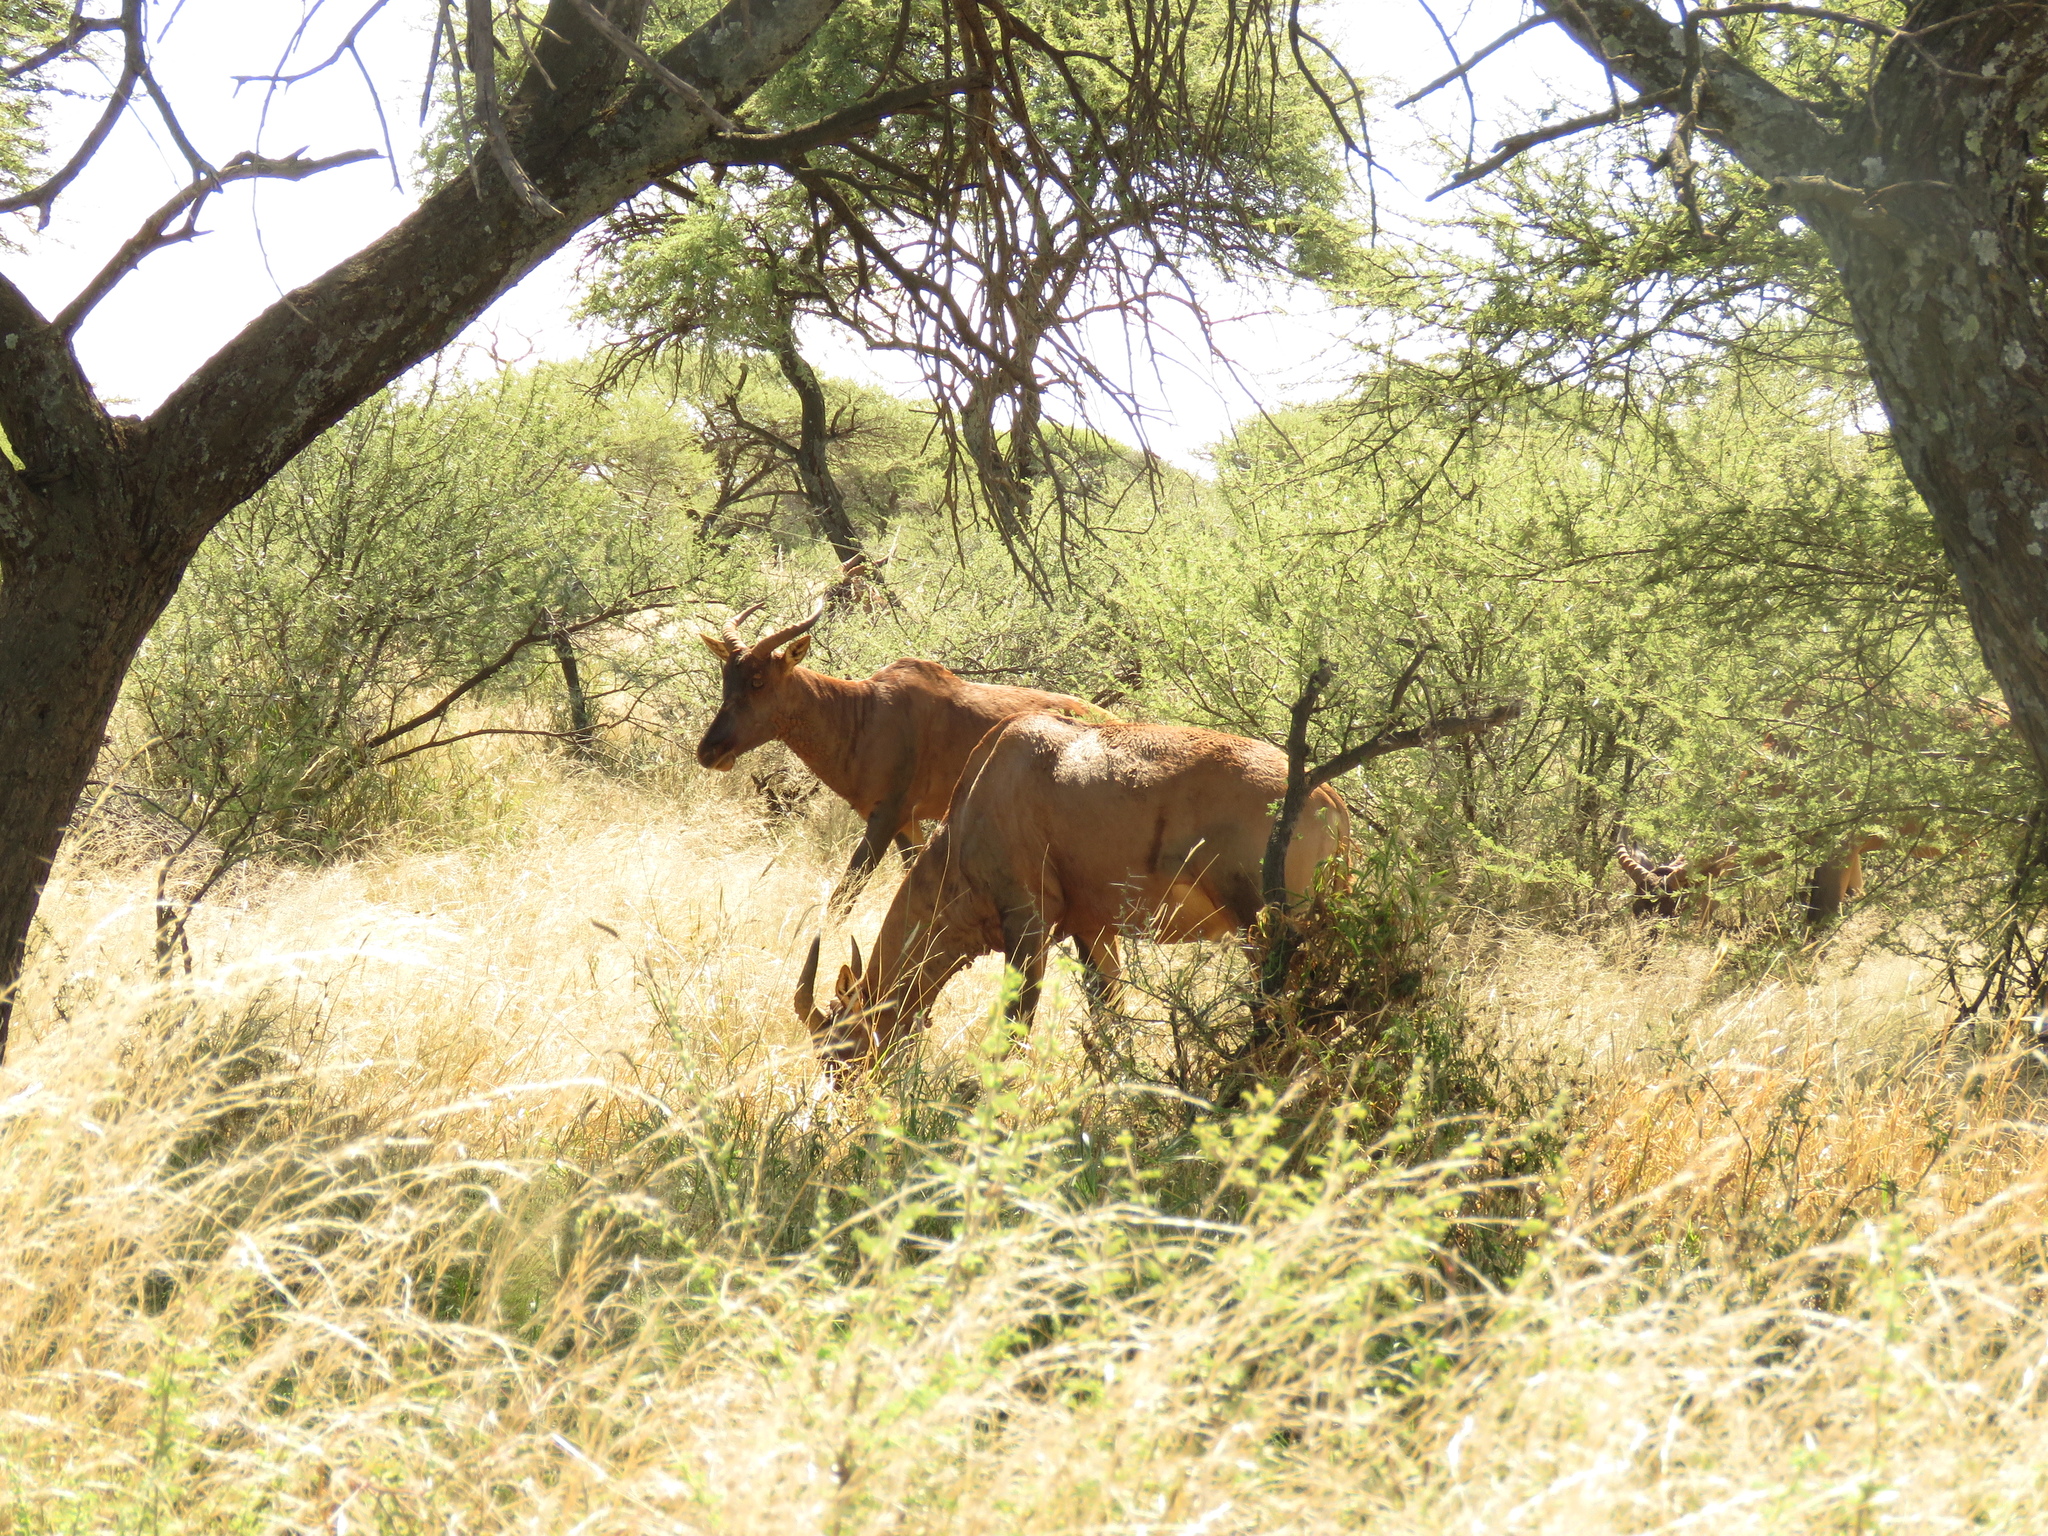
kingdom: Animalia
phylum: Chordata
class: Mammalia
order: Artiodactyla
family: Bovidae
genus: Damaliscus
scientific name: Damaliscus lunatus
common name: Common tsessebe
